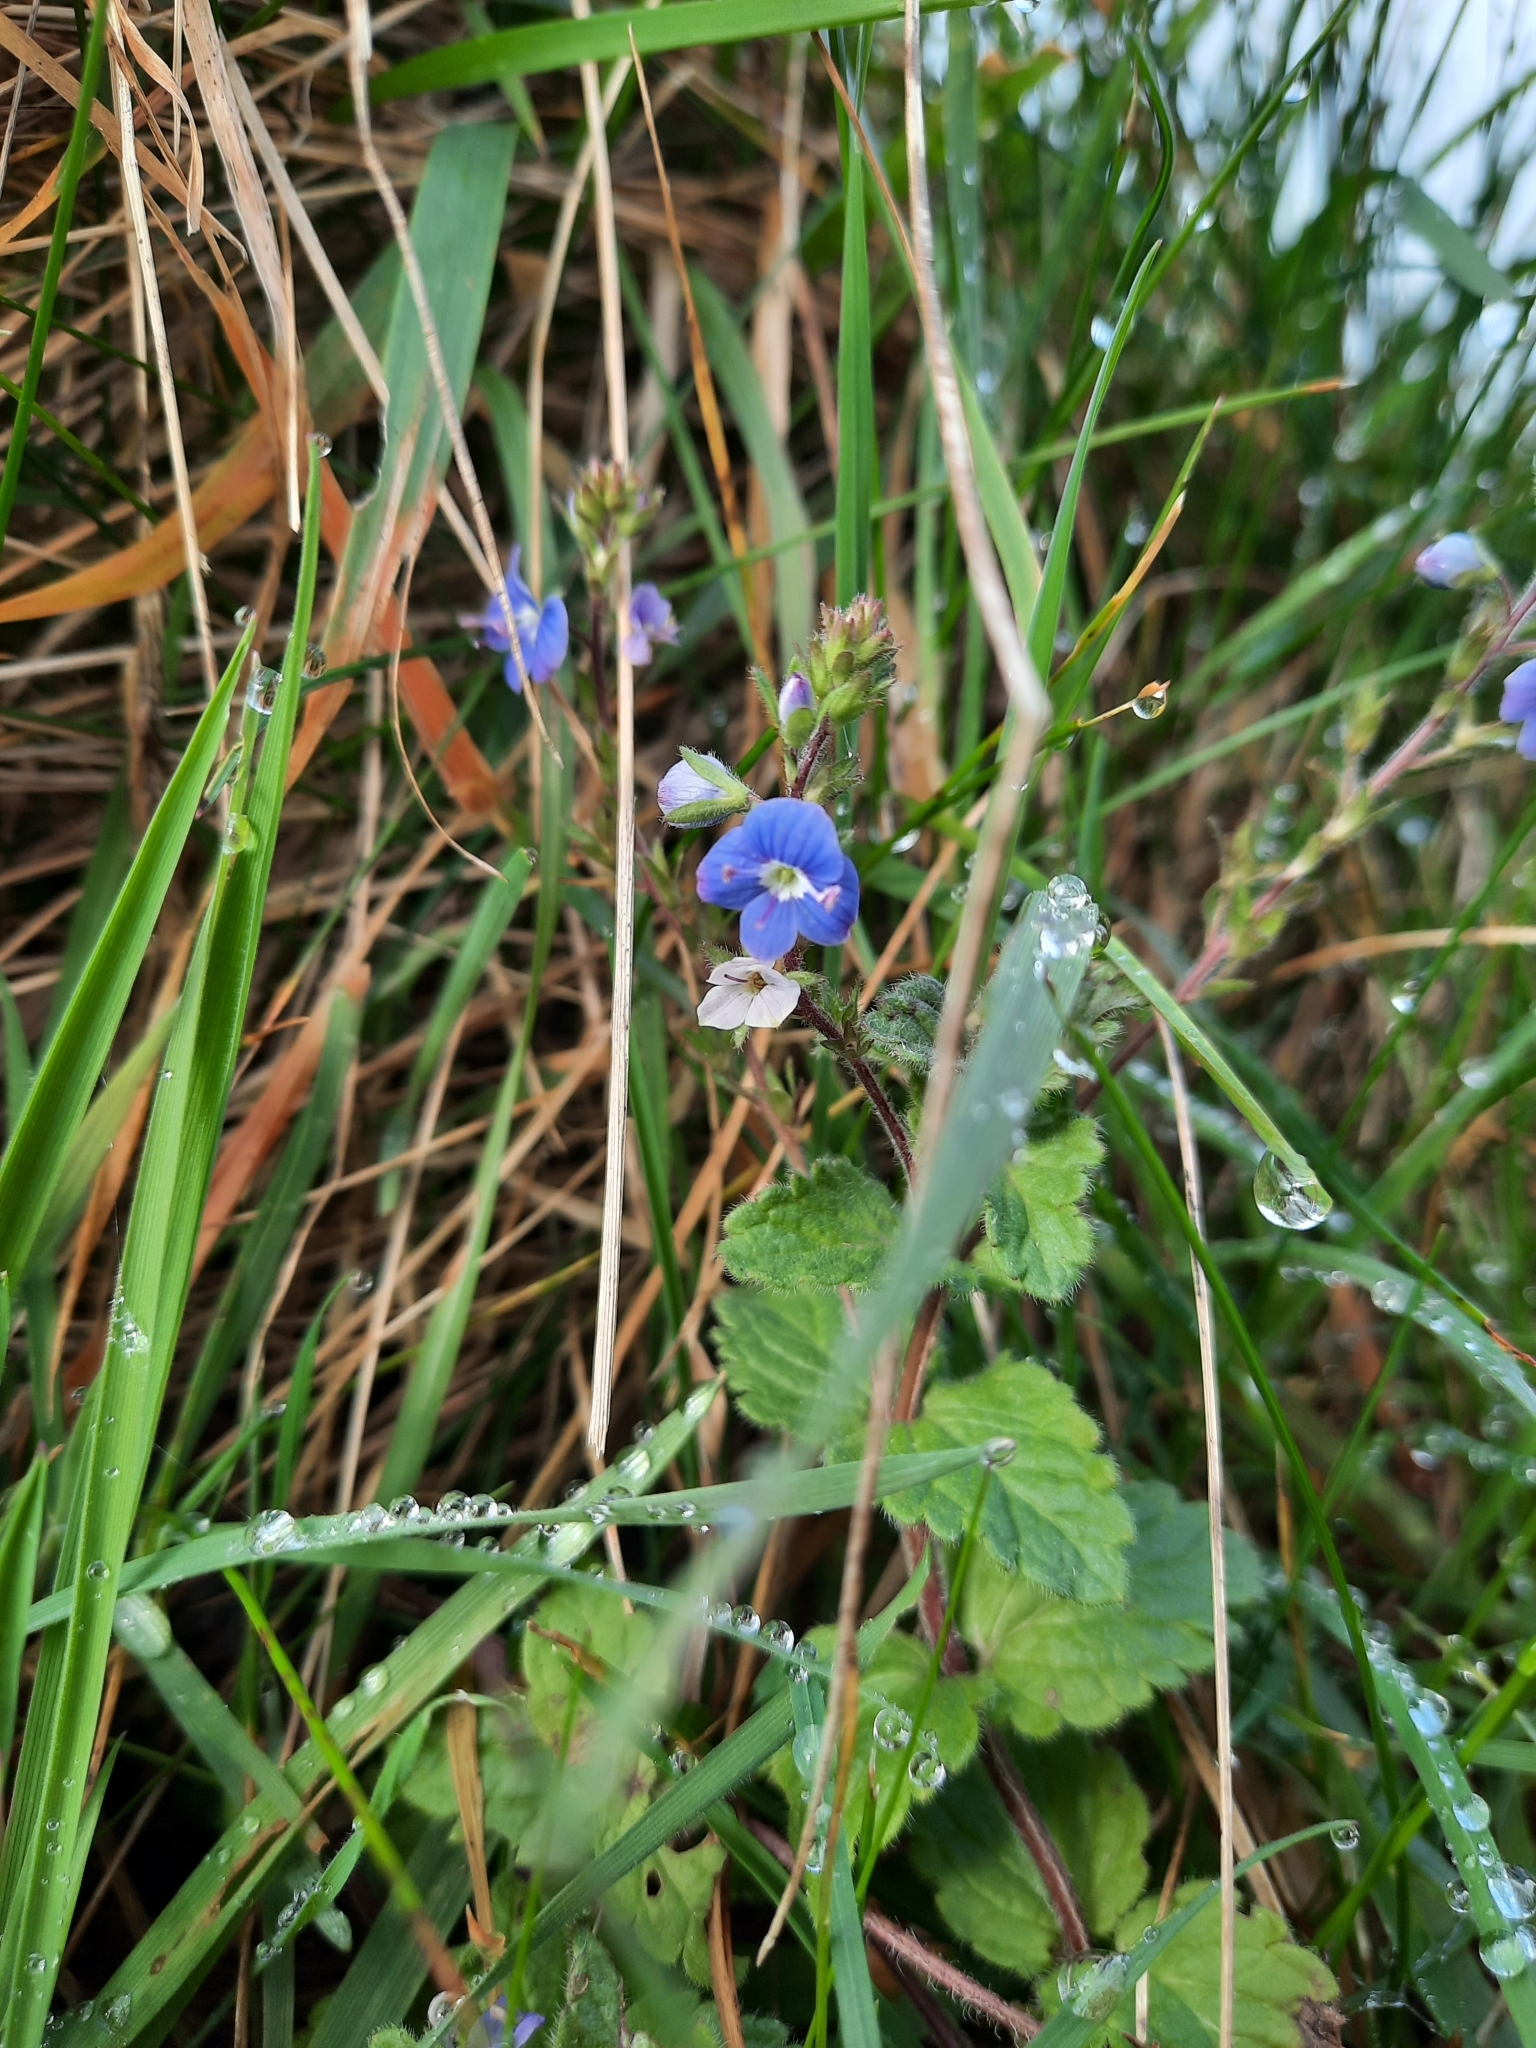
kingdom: Plantae
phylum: Tracheophyta
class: Magnoliopsida
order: Lamiales
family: Plantaginaceae
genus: Veronica
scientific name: Veronica chamaedrys
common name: Germander speedwell
